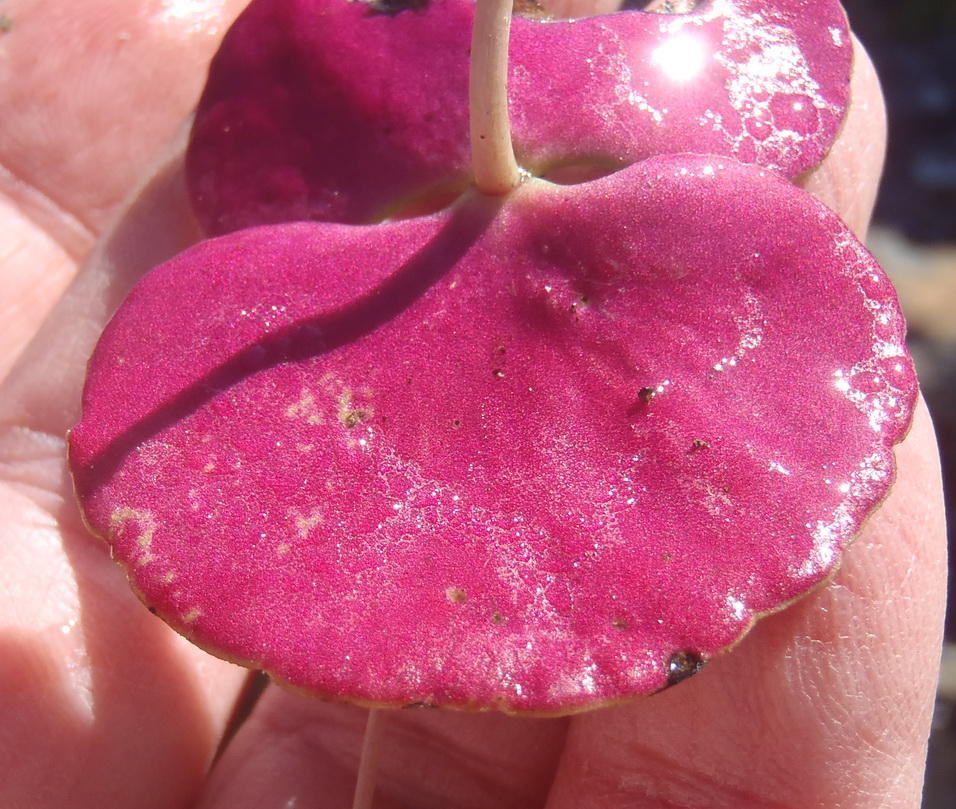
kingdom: Plantae
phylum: Tracheophyta
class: Magnoliopsida
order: Saxifragales
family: Crassulaceae
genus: Crassula
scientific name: Crassula umbella
